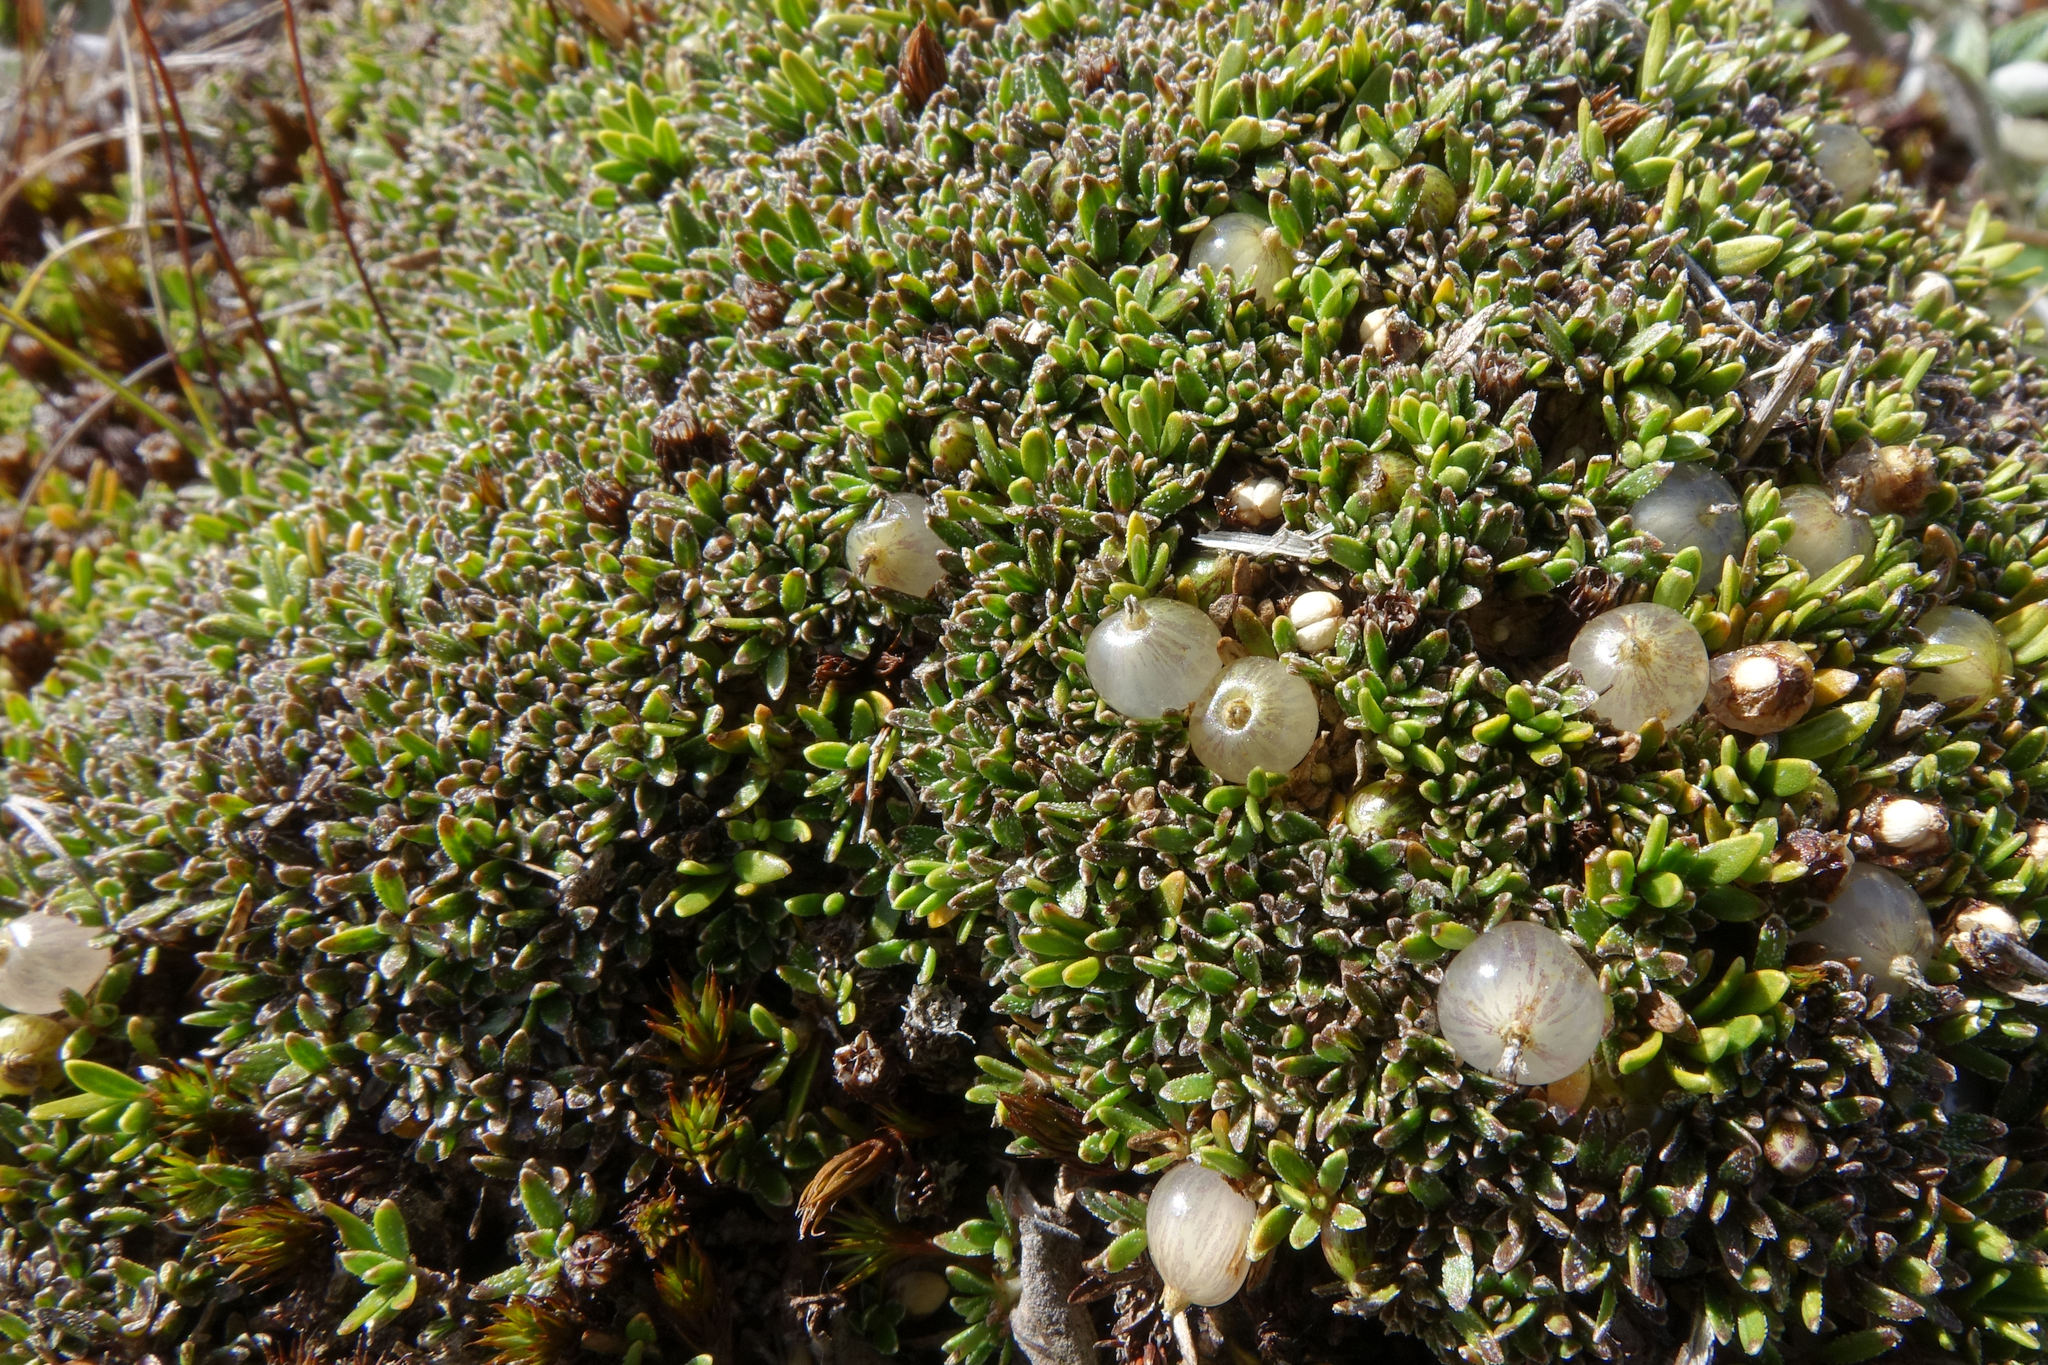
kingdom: Plantae
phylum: Tracheophyta
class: Magnoliopsida
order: Gentianales
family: Rubiaceae
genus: Coprosma
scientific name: Coprosma petriei
